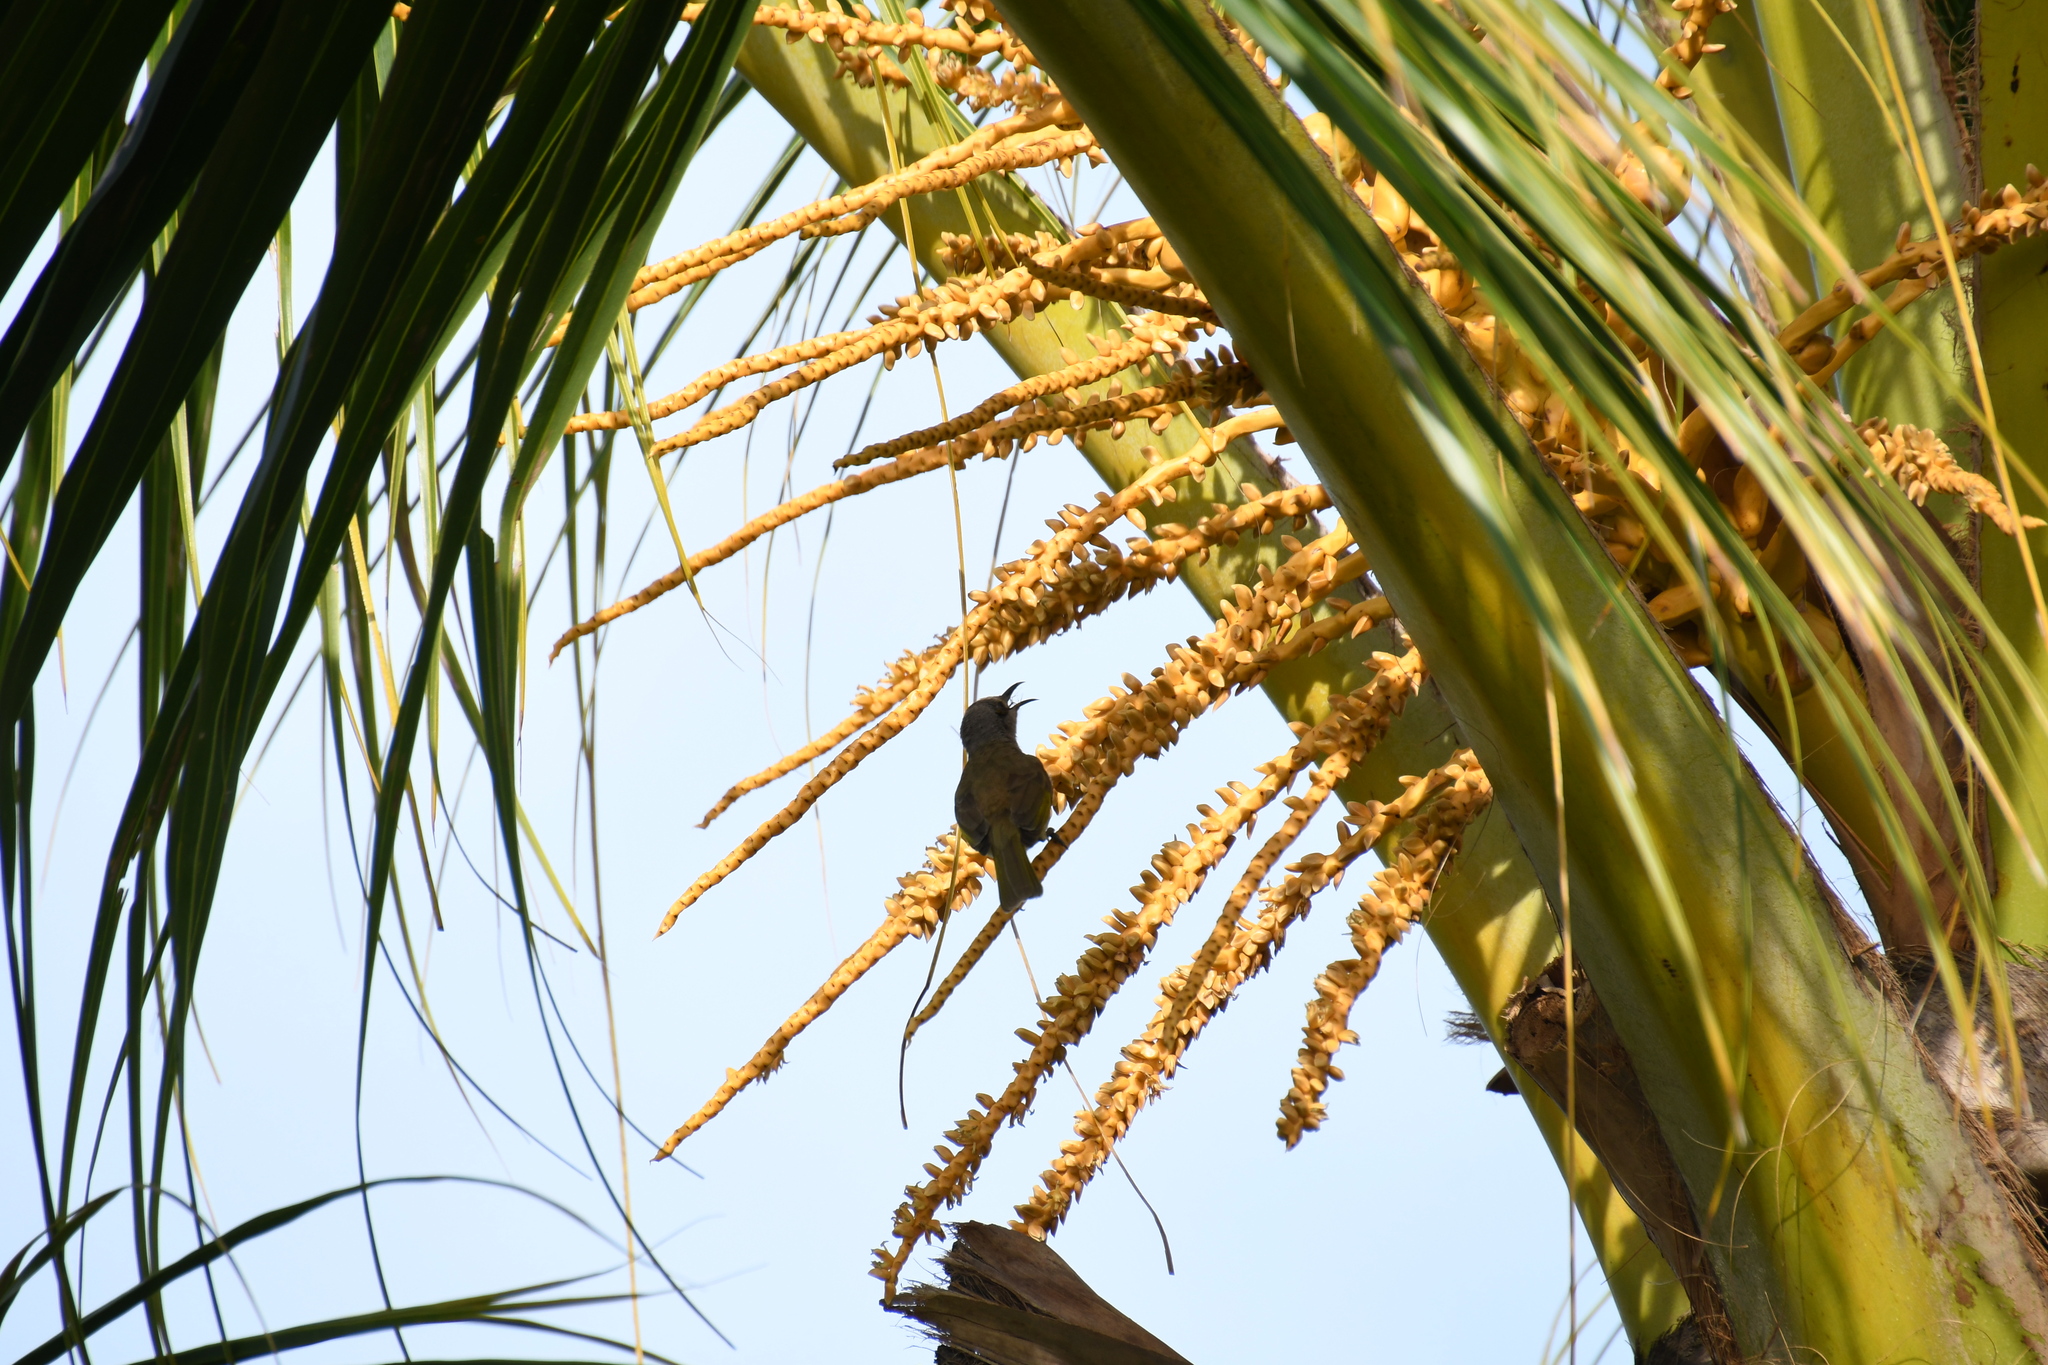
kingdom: Animalia
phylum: Chordata
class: Aves
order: Passeriformes
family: Meliphagidae
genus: Lichmera
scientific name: Lichmera indistincta
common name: Brown honeyeater
